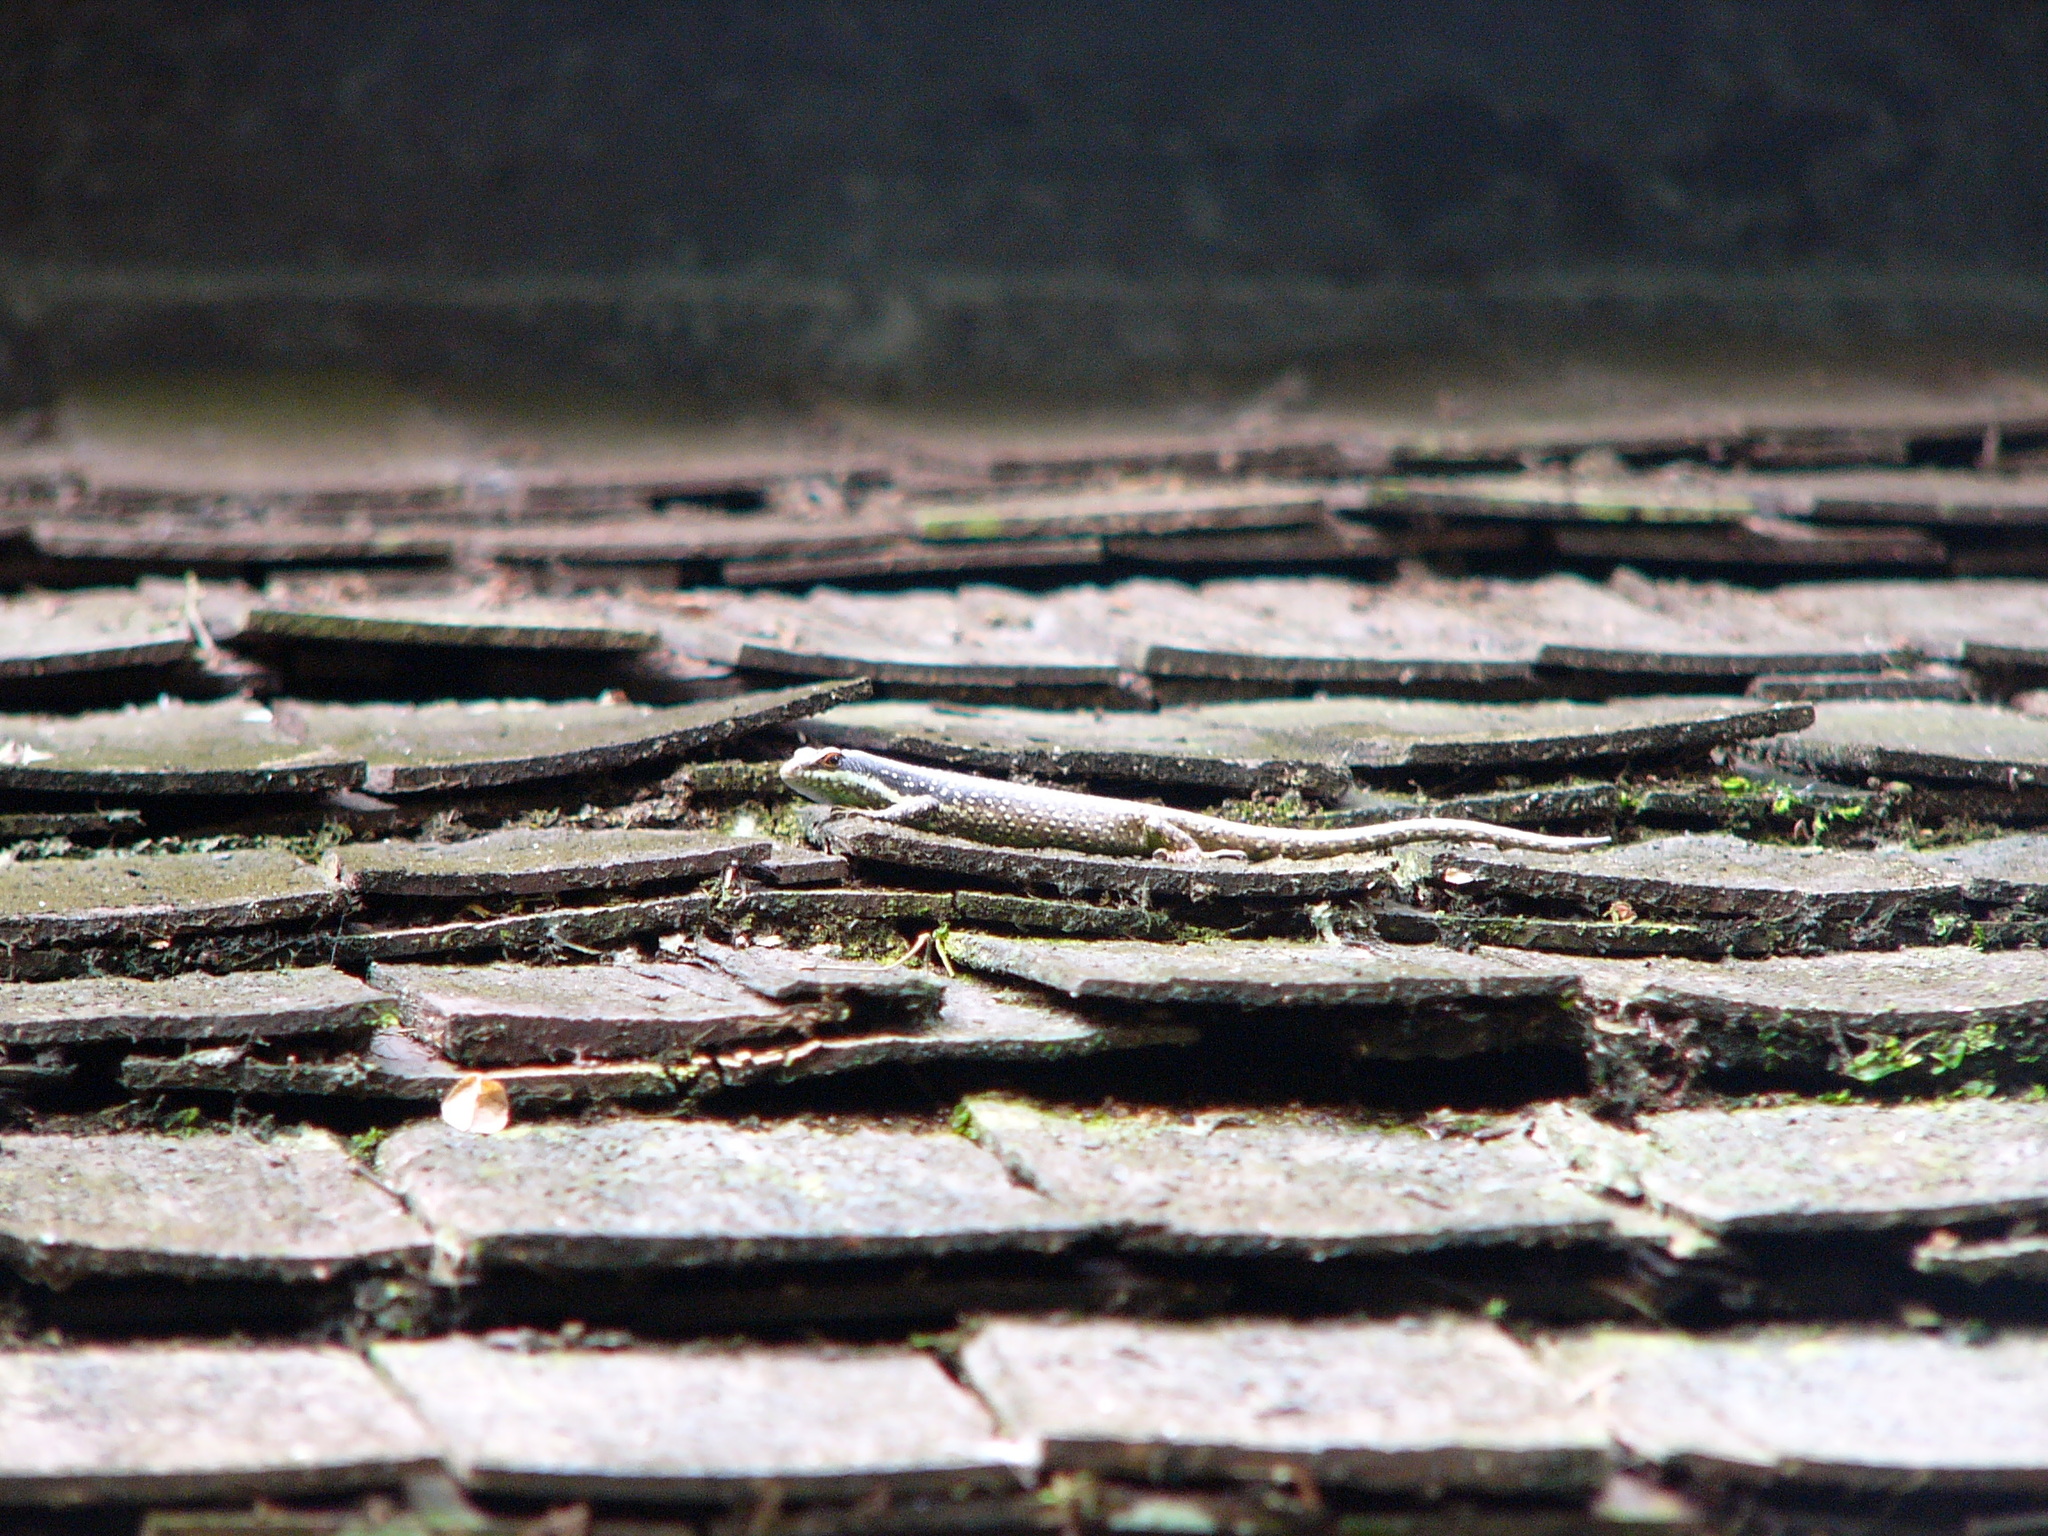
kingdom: Animalia
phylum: Chordata
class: Squamata
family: Scincidae
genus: Dasia
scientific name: Dasia vittata
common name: Borneo skink
